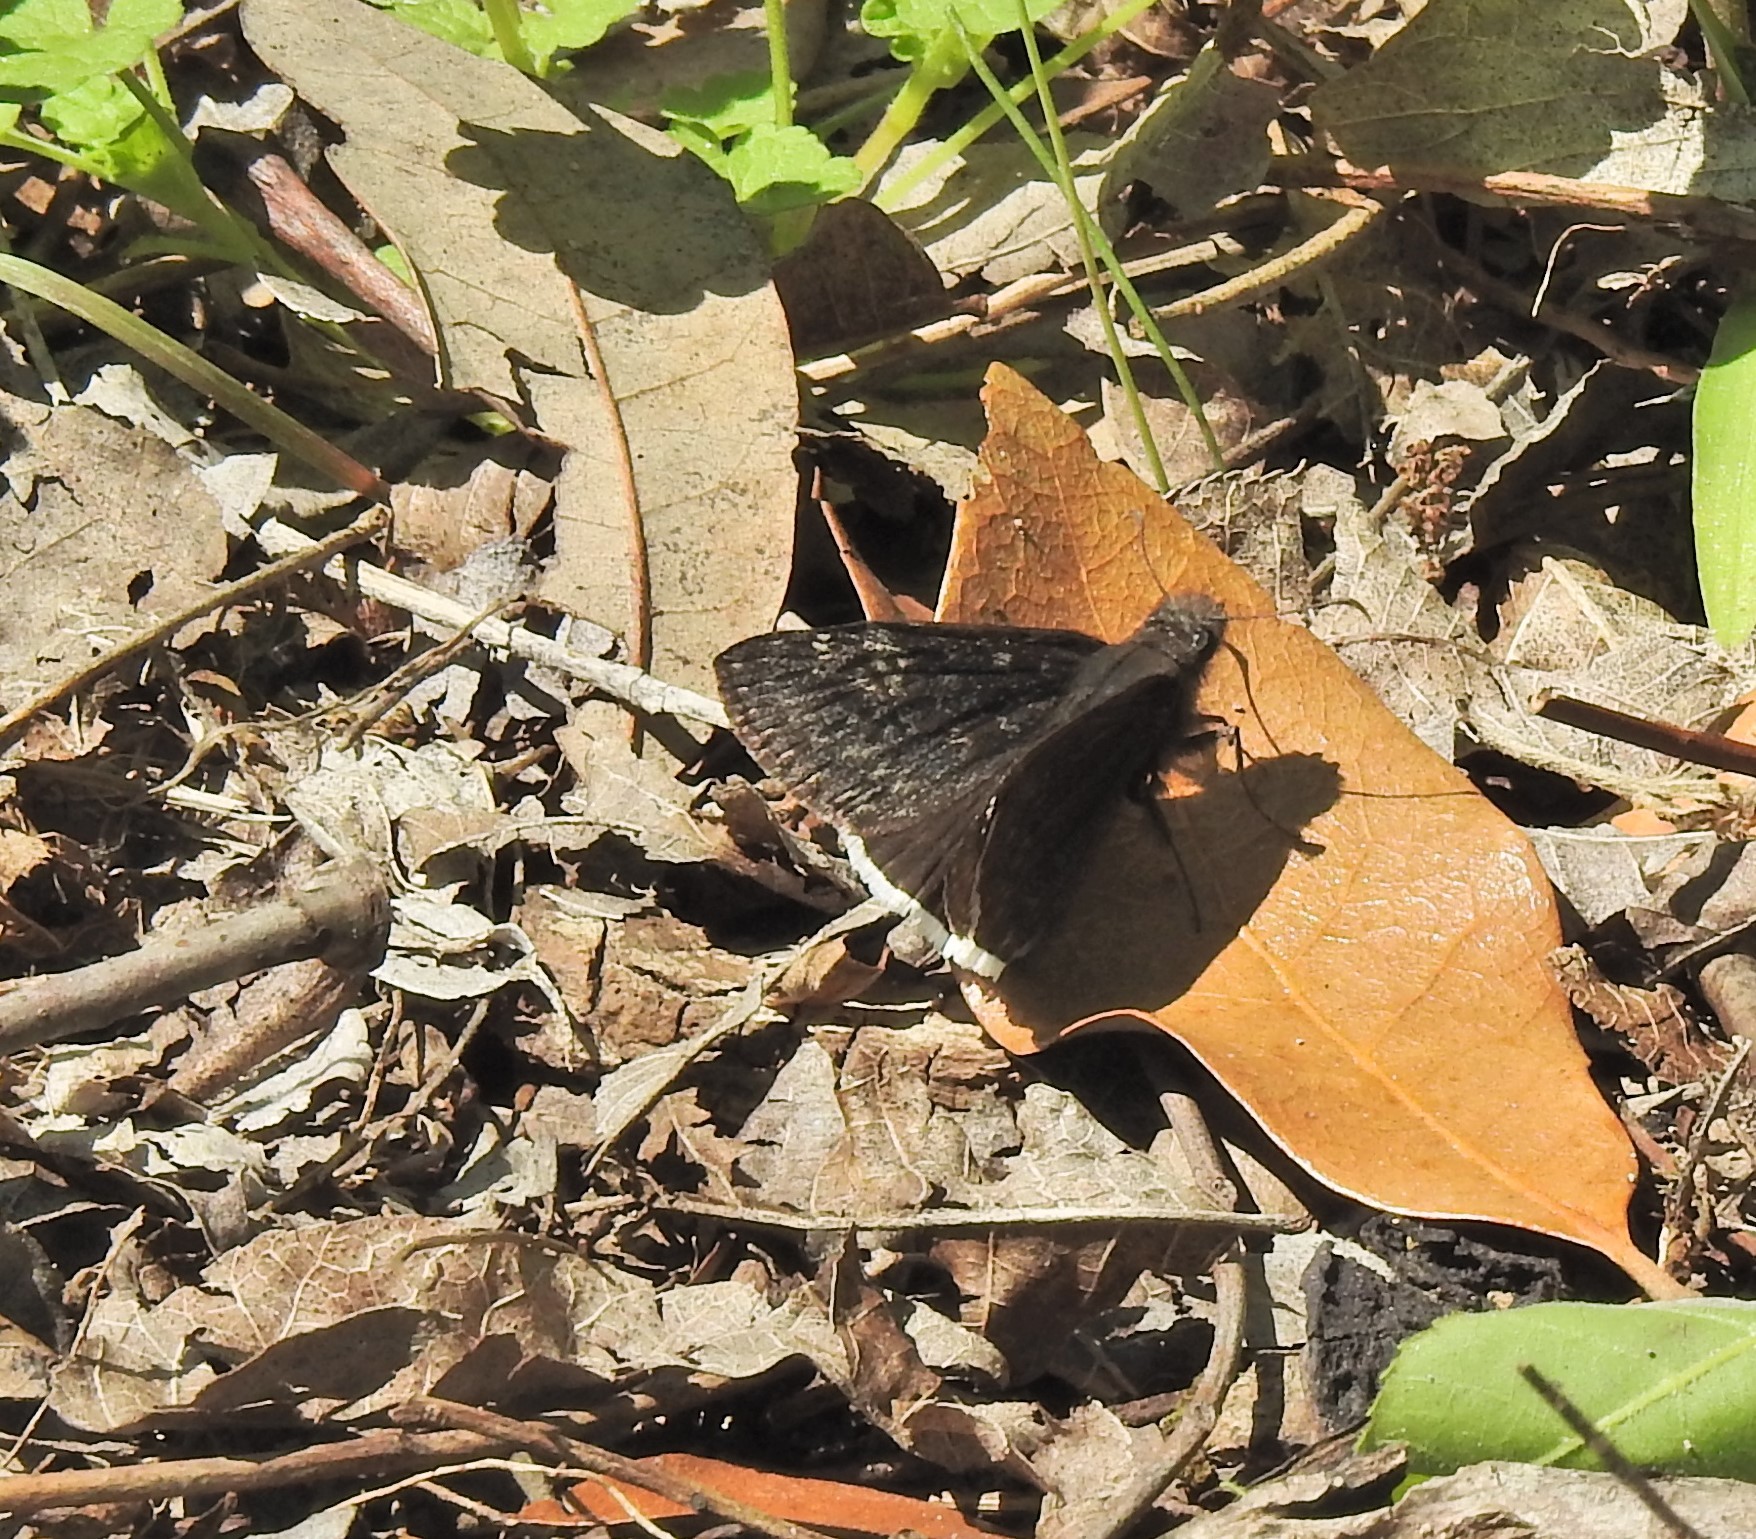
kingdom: Animalia
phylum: Arthropoda
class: Insecta
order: Lepidoptera
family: Hesperiidae
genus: Erynnis
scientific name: Erynnis funeralis
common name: Funereal duskywing
